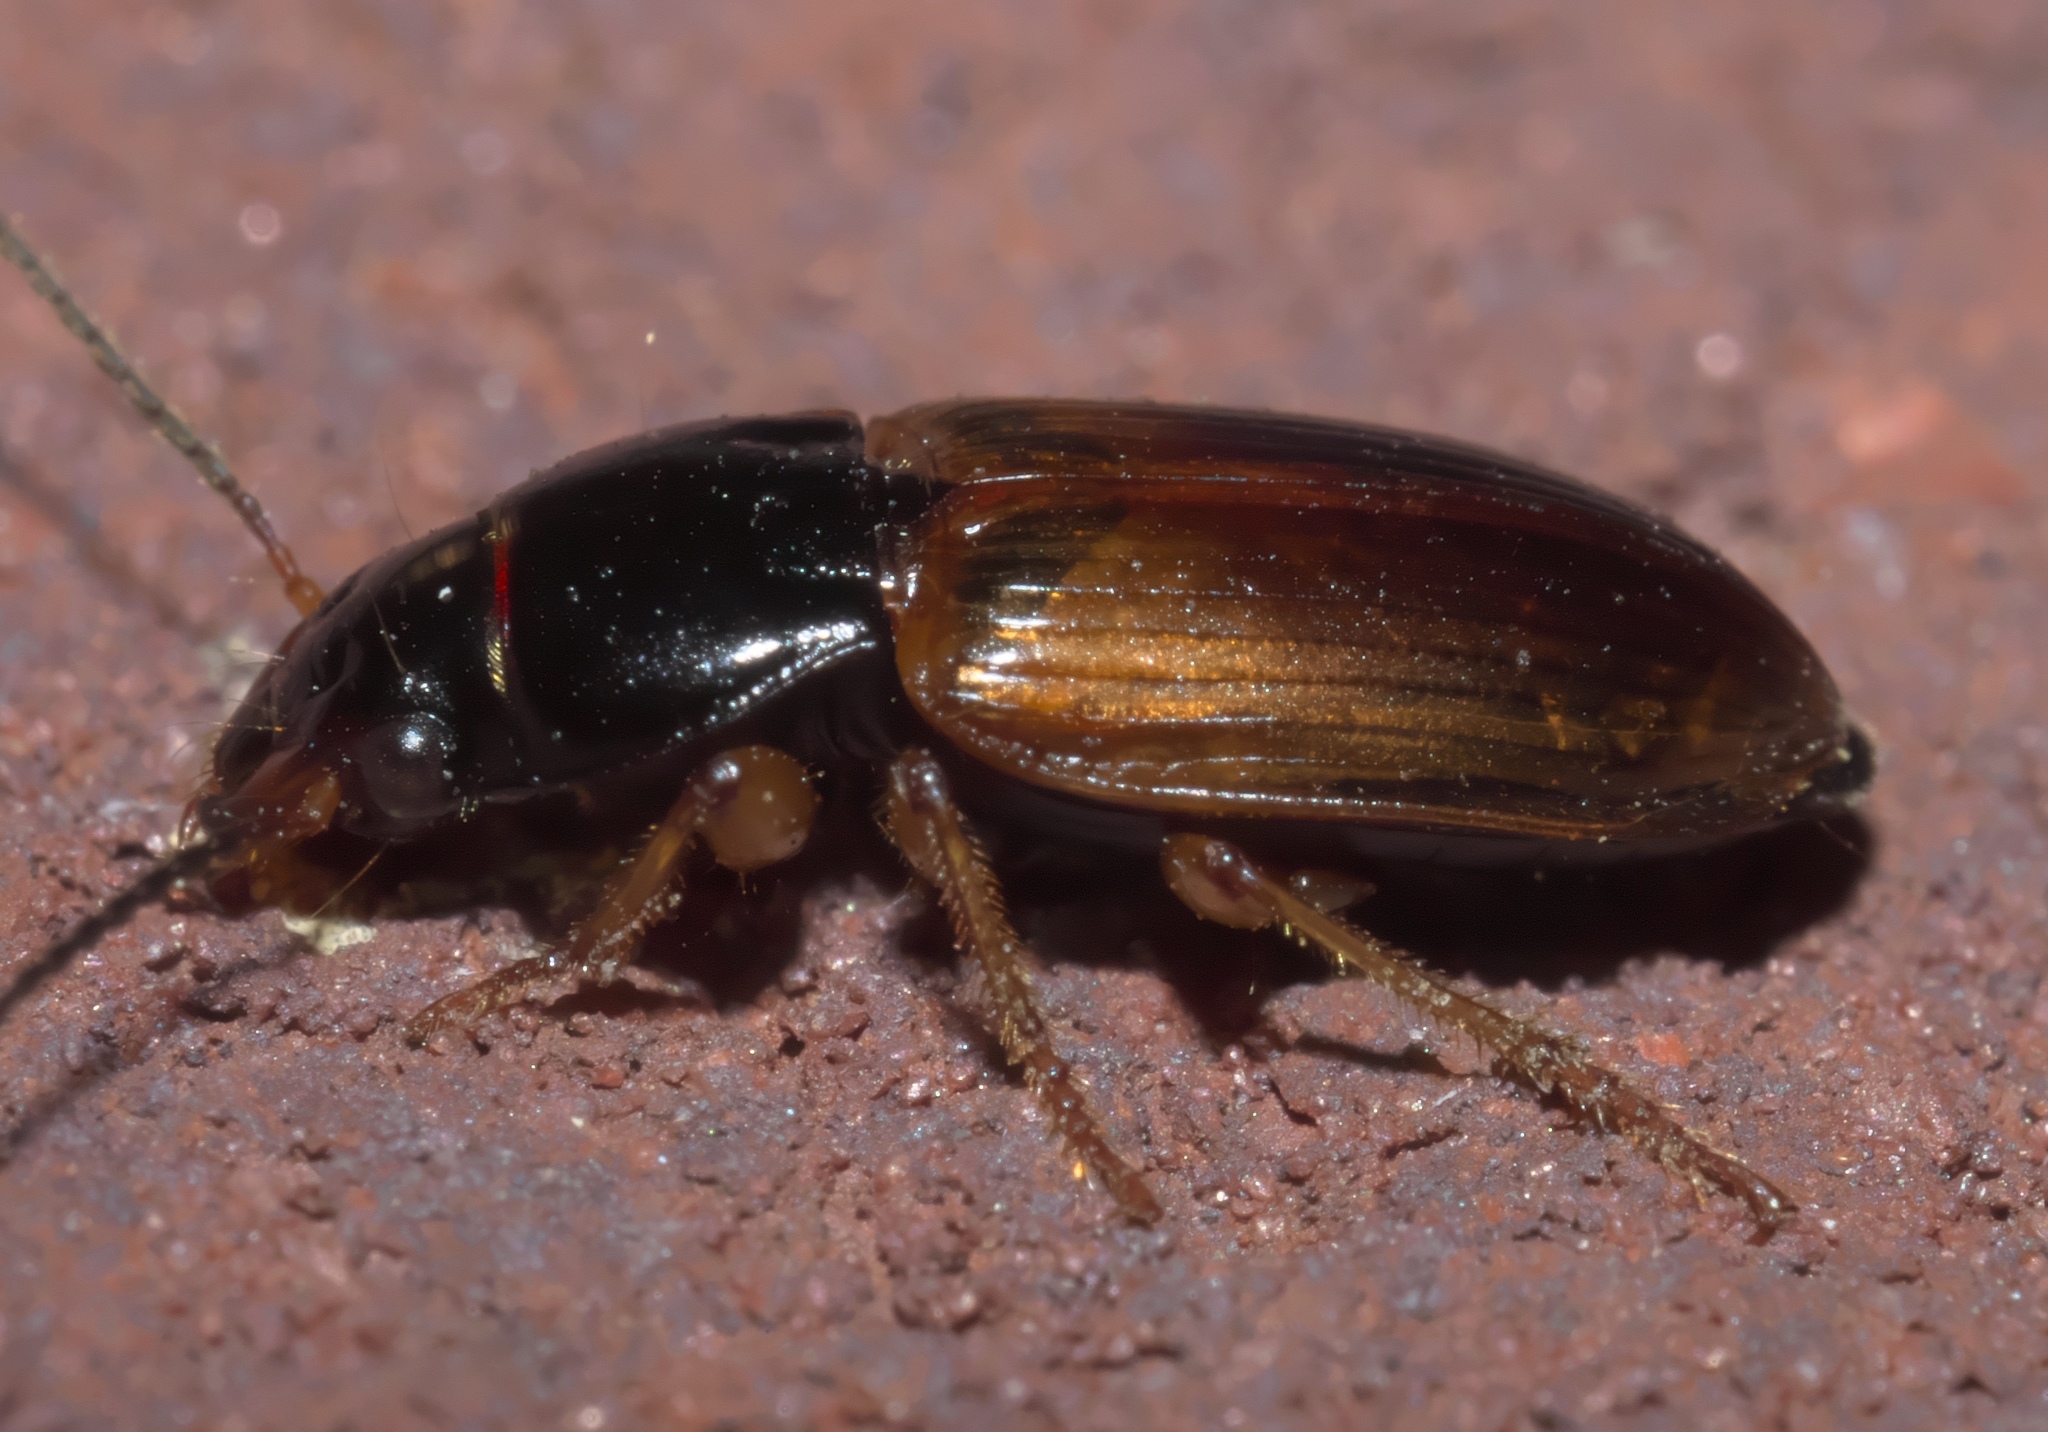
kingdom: Animalia
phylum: Arthropoda
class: Insecta
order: Coleoptera
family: Carabidae
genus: Anisodactylus
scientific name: Anisodactylus sanctaecrucis
